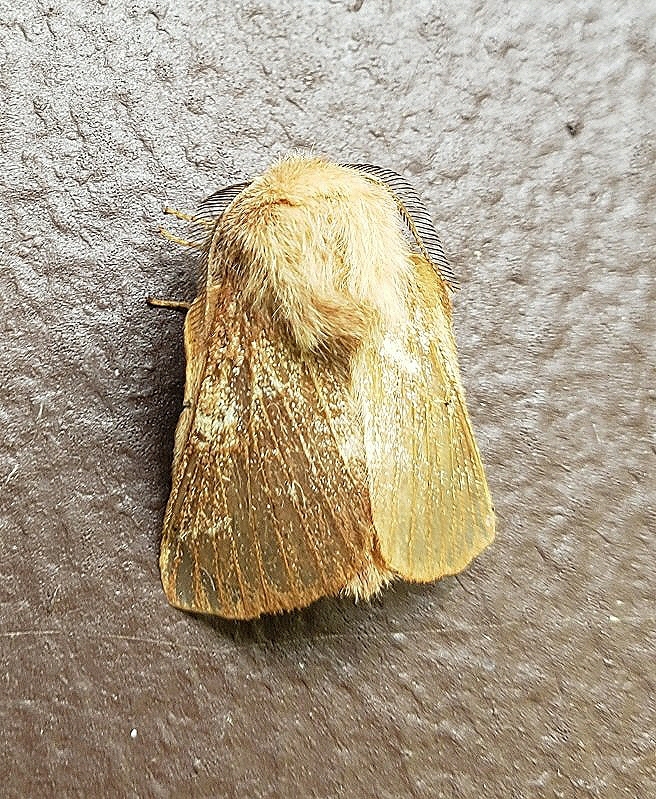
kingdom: Animalia
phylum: Arthropoda
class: Insecta
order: Lepidoptera
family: Lasiocampidae
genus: Malacosoma
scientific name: Malacosoma americana
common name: Eastern tent caterpillar moth
